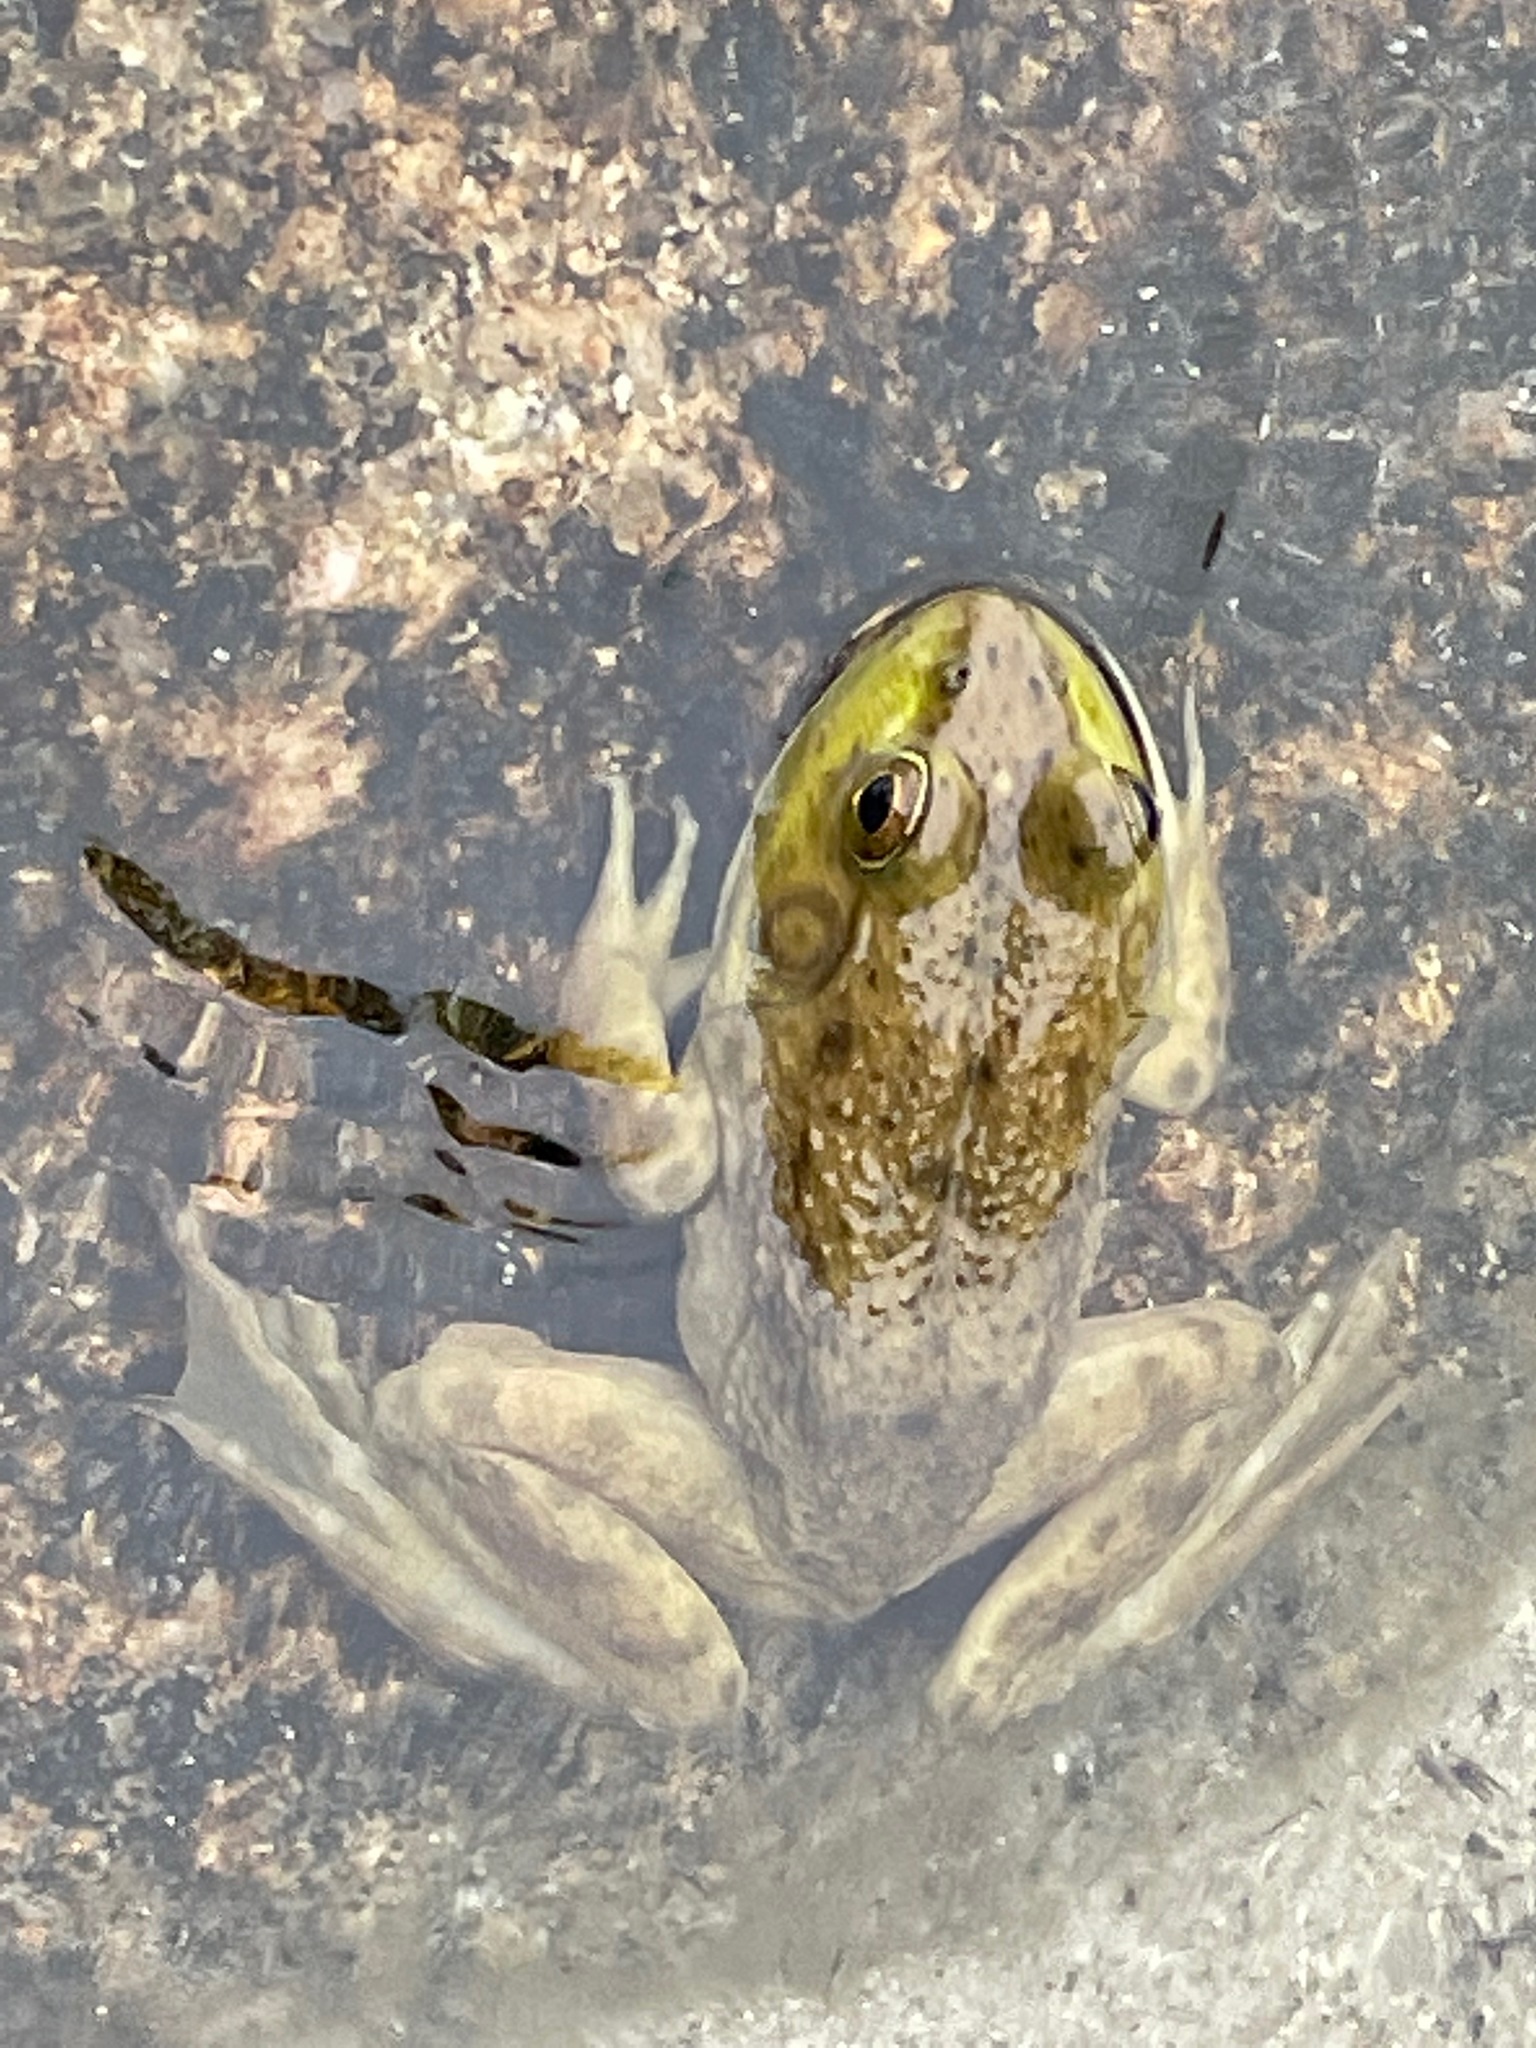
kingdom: Animalia
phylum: Chordata
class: Amphibia
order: Anura
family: Ranidae
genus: Lithobates
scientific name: Lithobates catesbeianus
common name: American bullfrog
